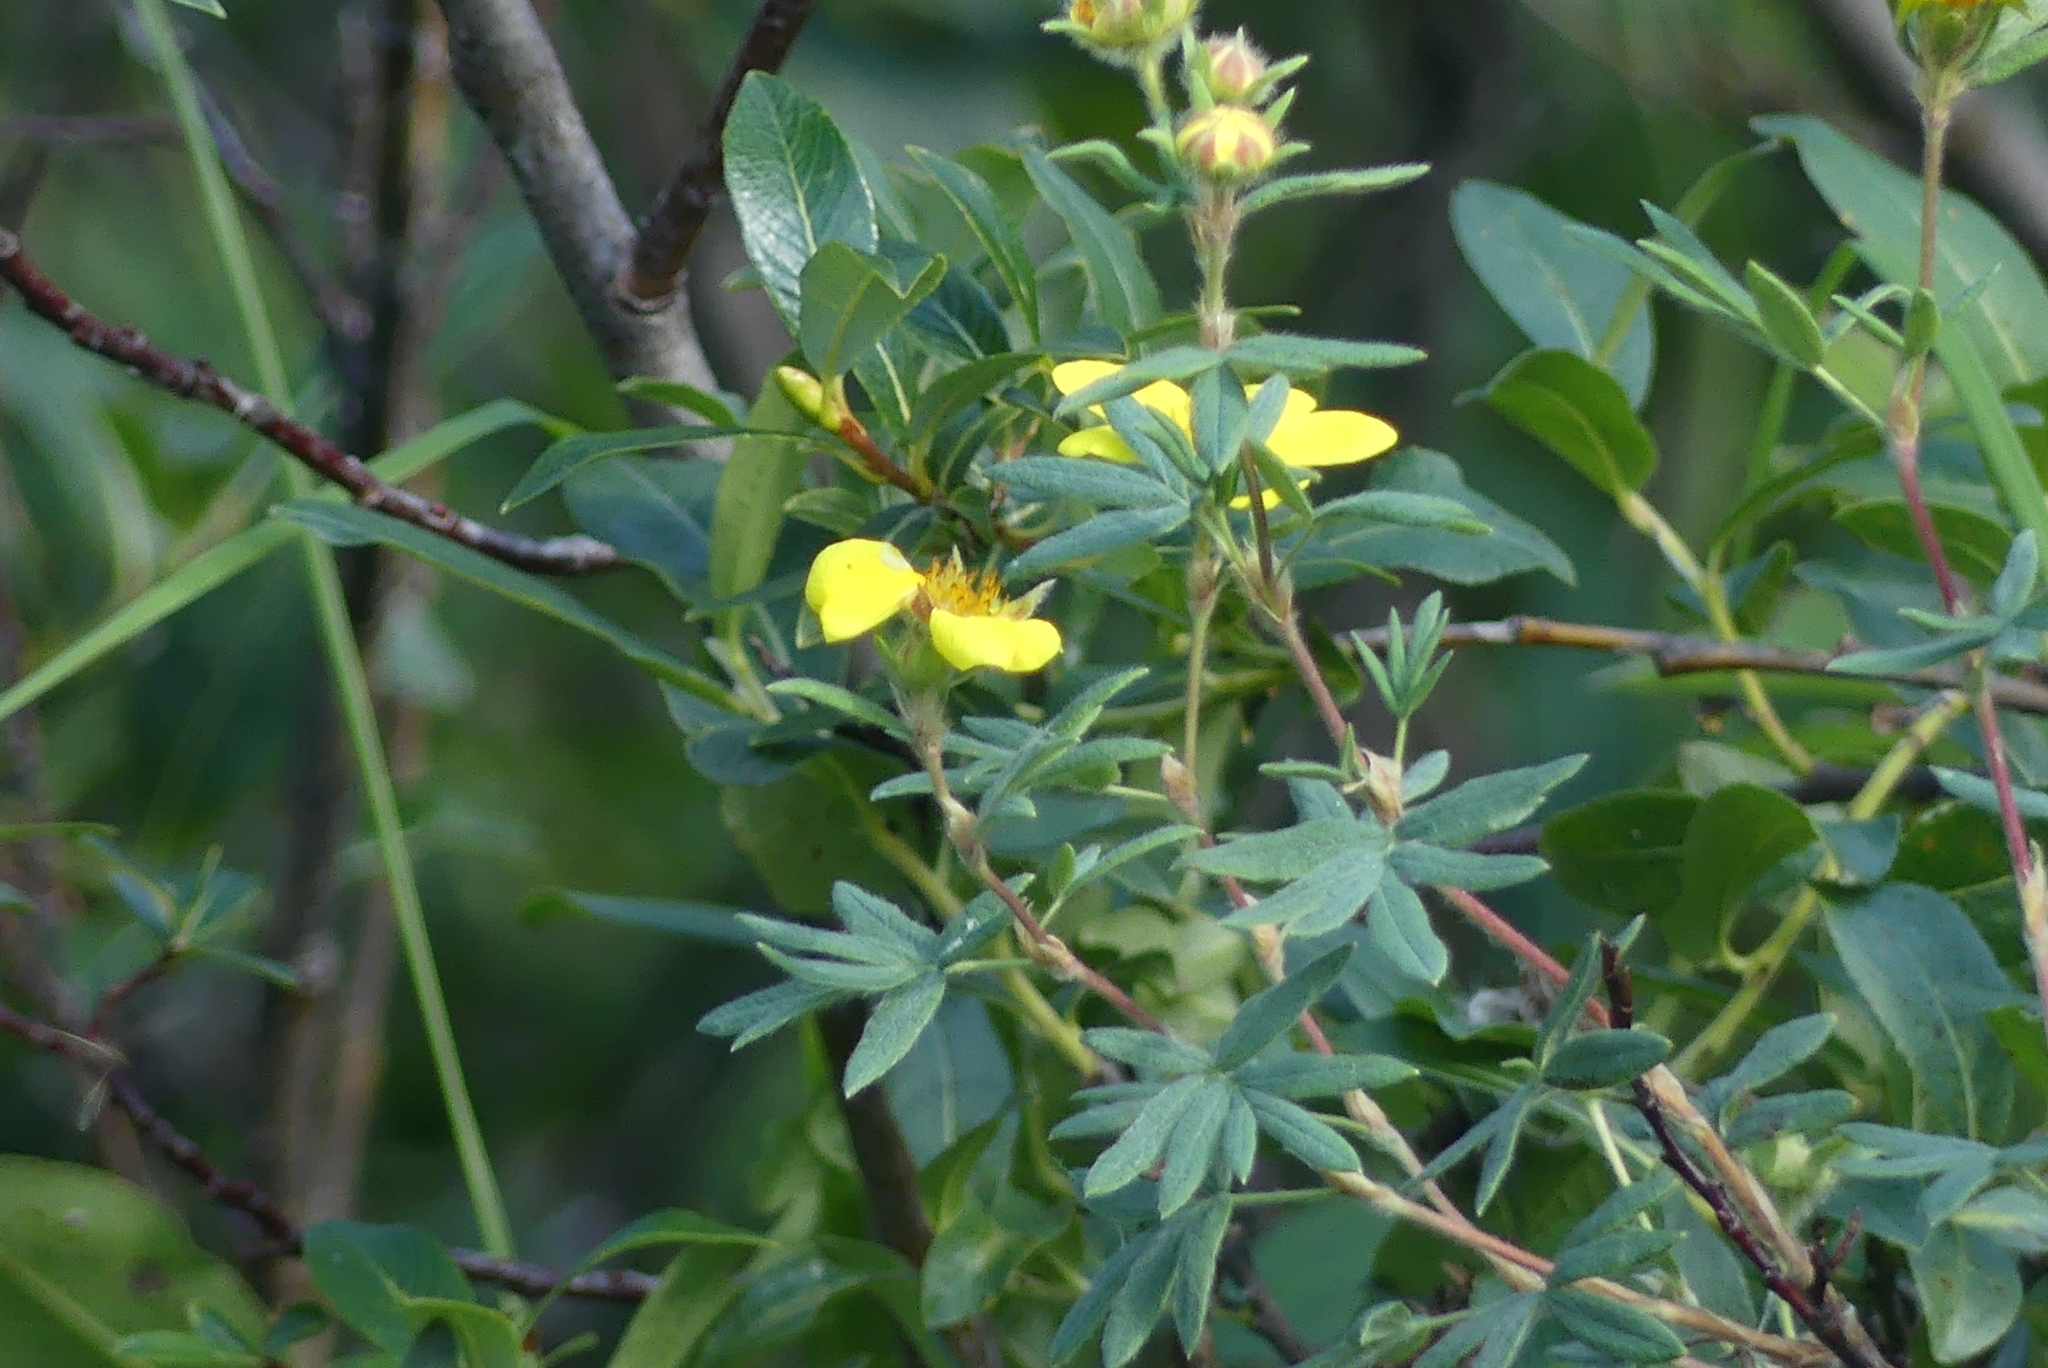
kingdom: Plantae
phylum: Tracheophyta
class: Magnoliopsida
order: Rosales
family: Rosaceae
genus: Dasiphora
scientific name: Dasiphora fruticosa
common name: Shrubby cinquefoil
